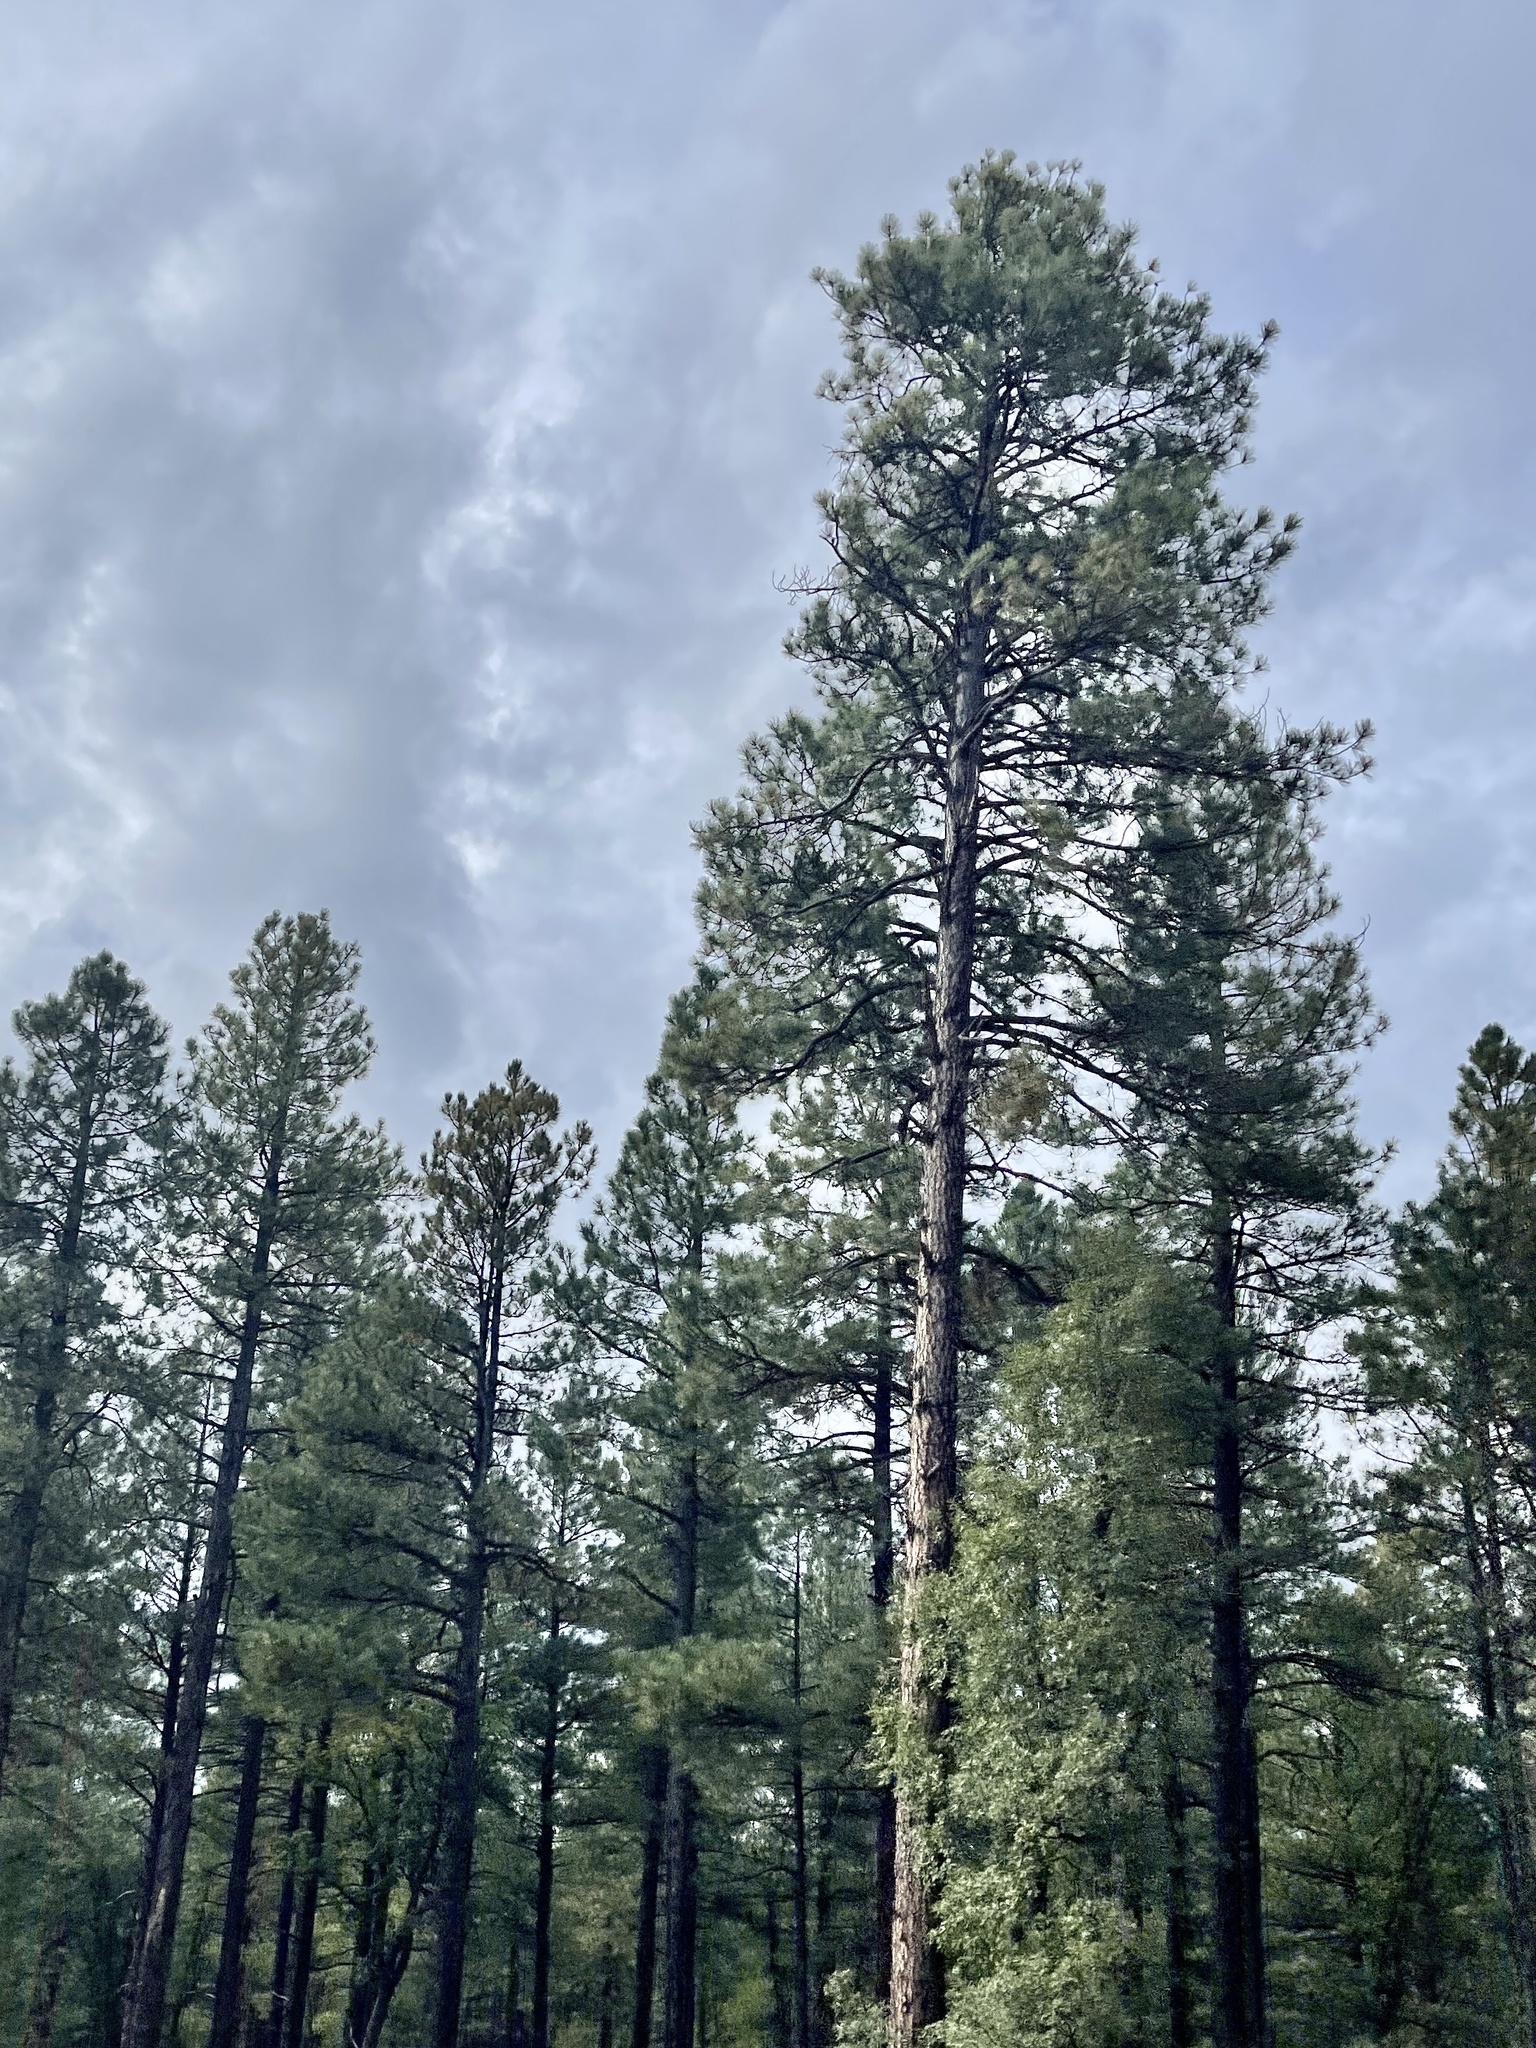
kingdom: Plantae
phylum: Tracheophyta
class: Pinopsida
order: Pinales
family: Pinaceae
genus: Pinus
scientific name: Pinus ponderosa
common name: Western yellow-pine
